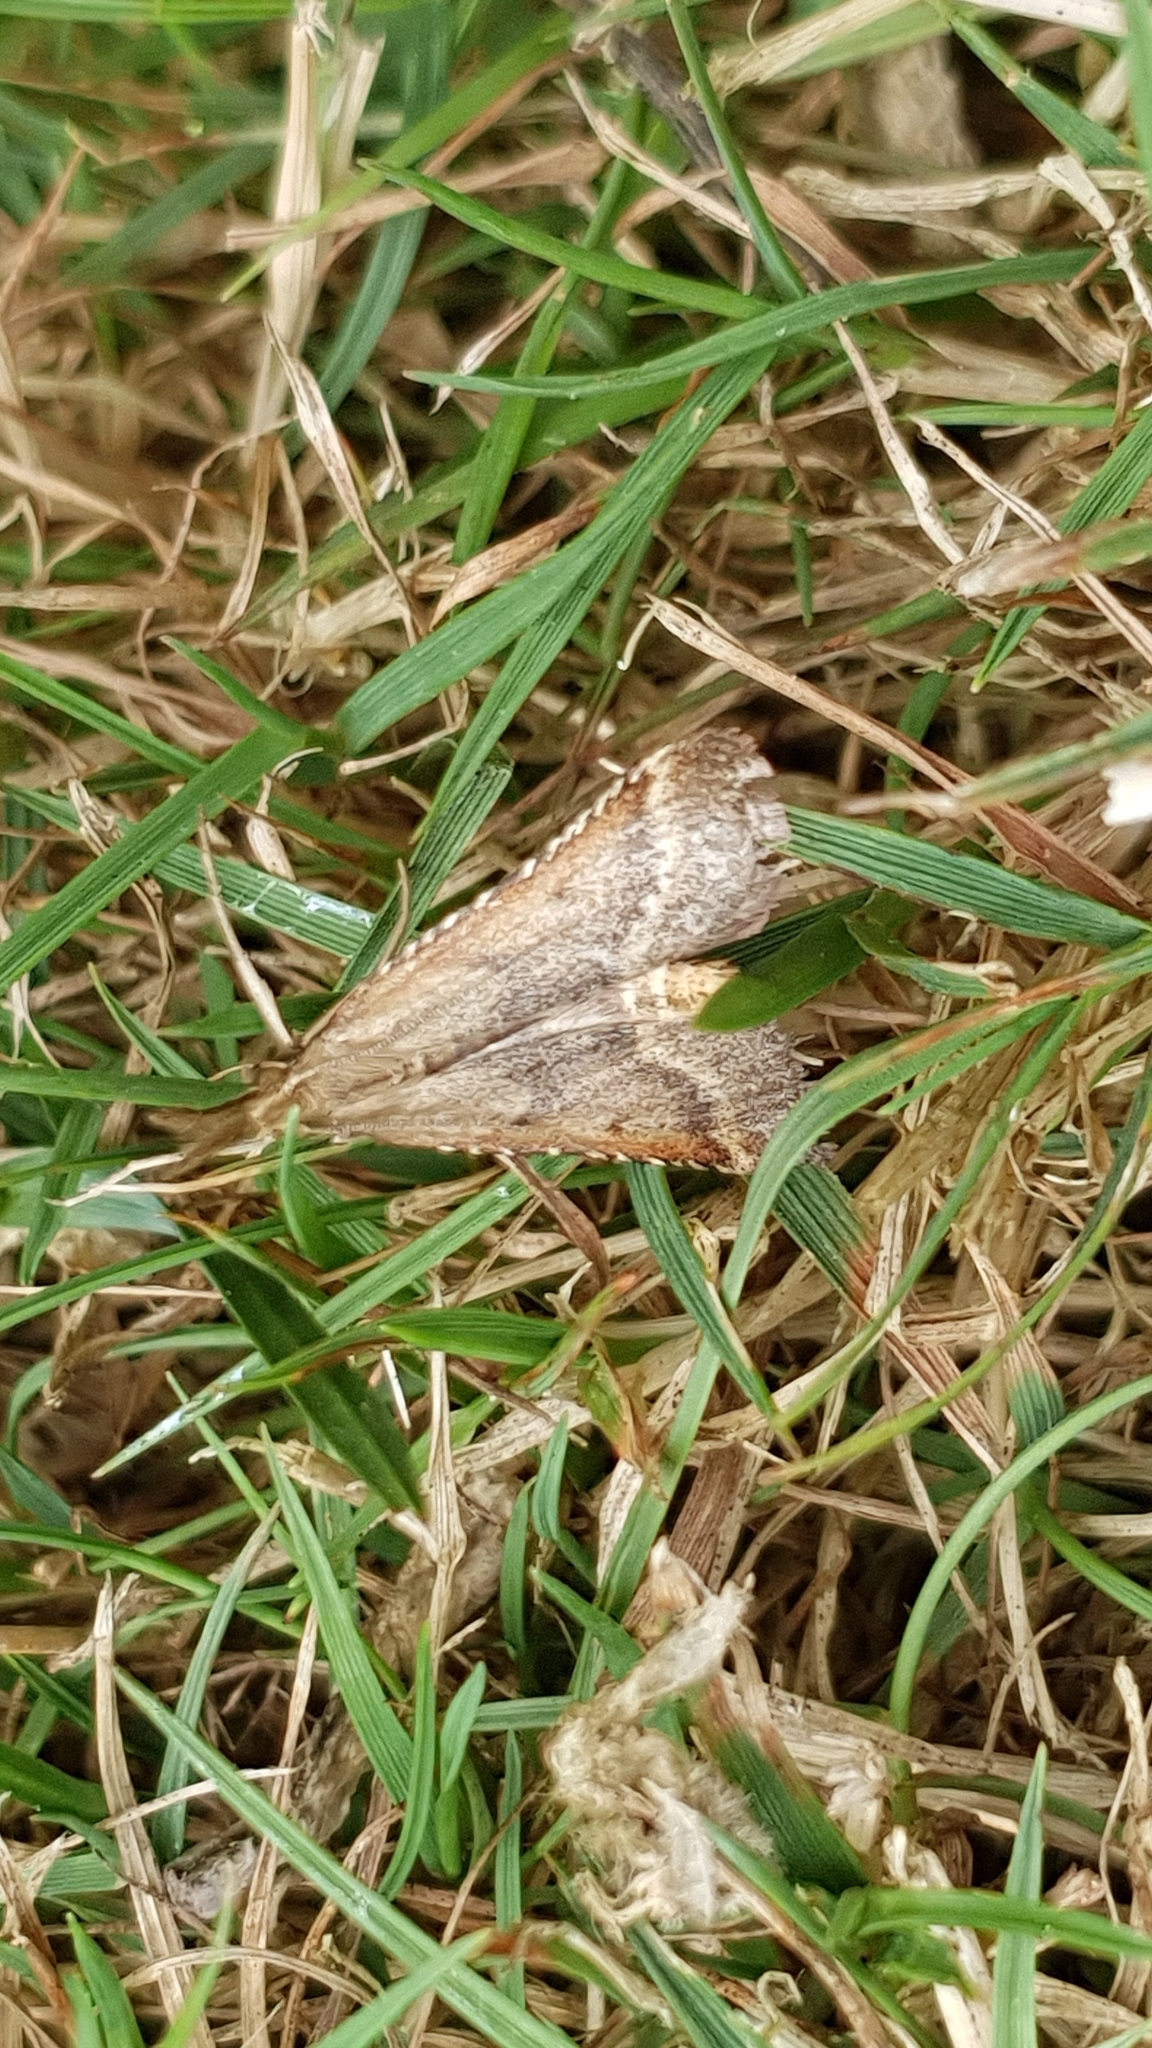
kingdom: Animalia
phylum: Arthropoda
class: Insecta
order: Lepidoptera
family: Pyralidae
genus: Synaphe
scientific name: Synaphe punctalis
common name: Long-legged tabby
